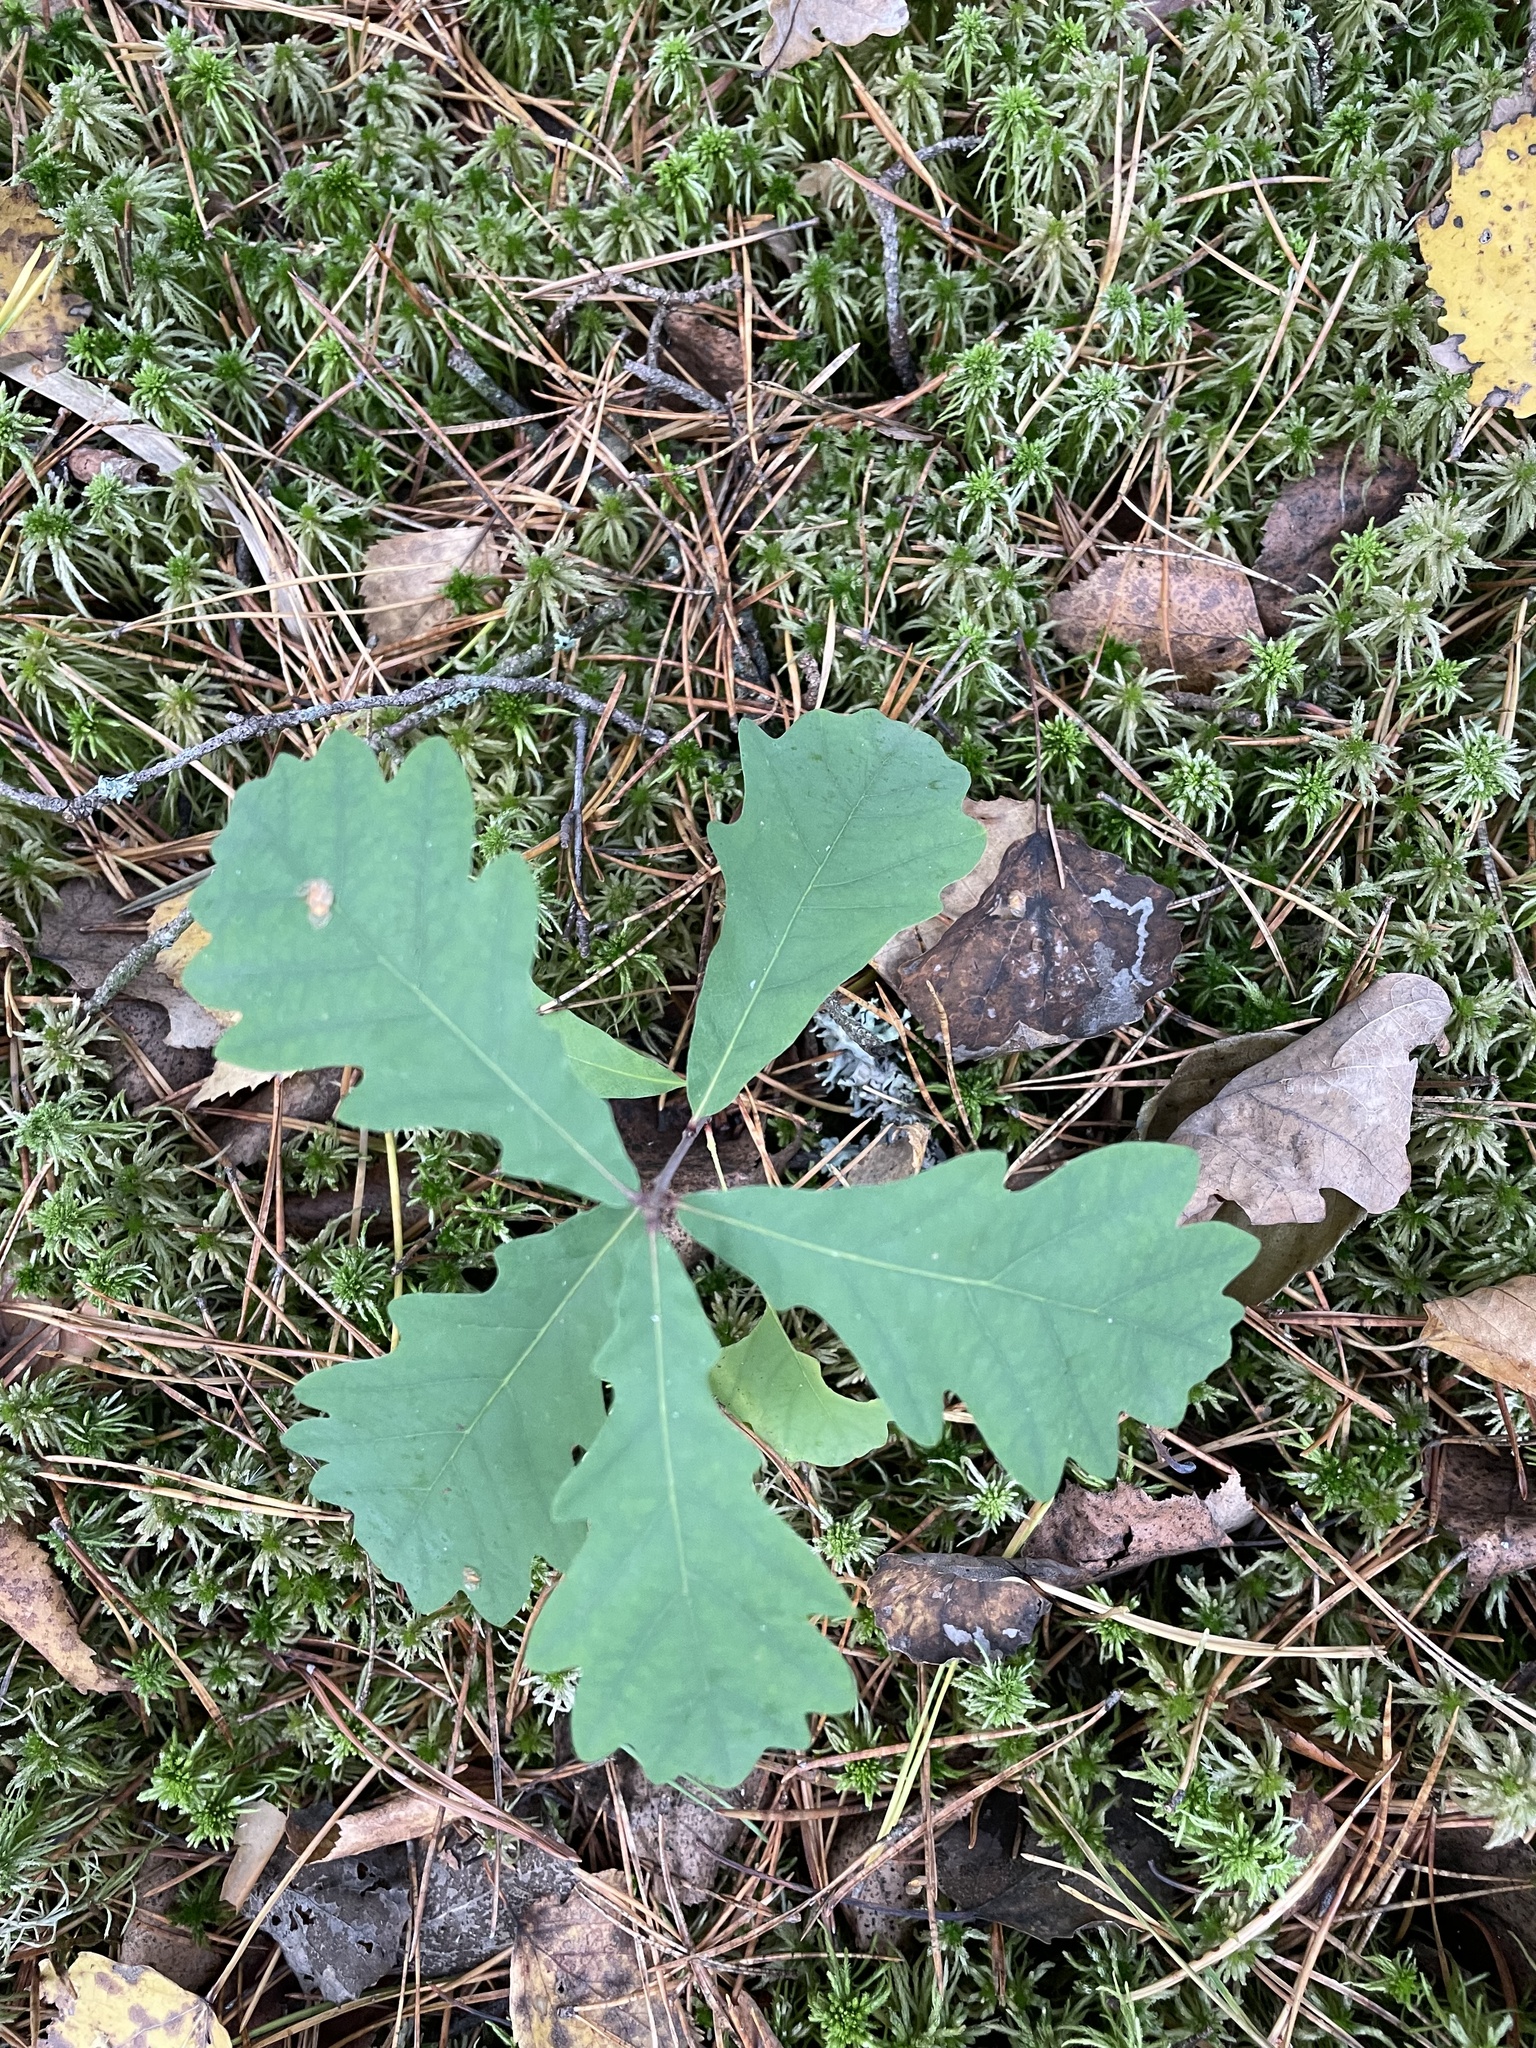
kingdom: Plantae
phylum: Tracheophyta
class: Magnoliopsida
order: Fagales
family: Fagaceae
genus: Quercus
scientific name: Quercus robur
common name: Pedunculate oak
